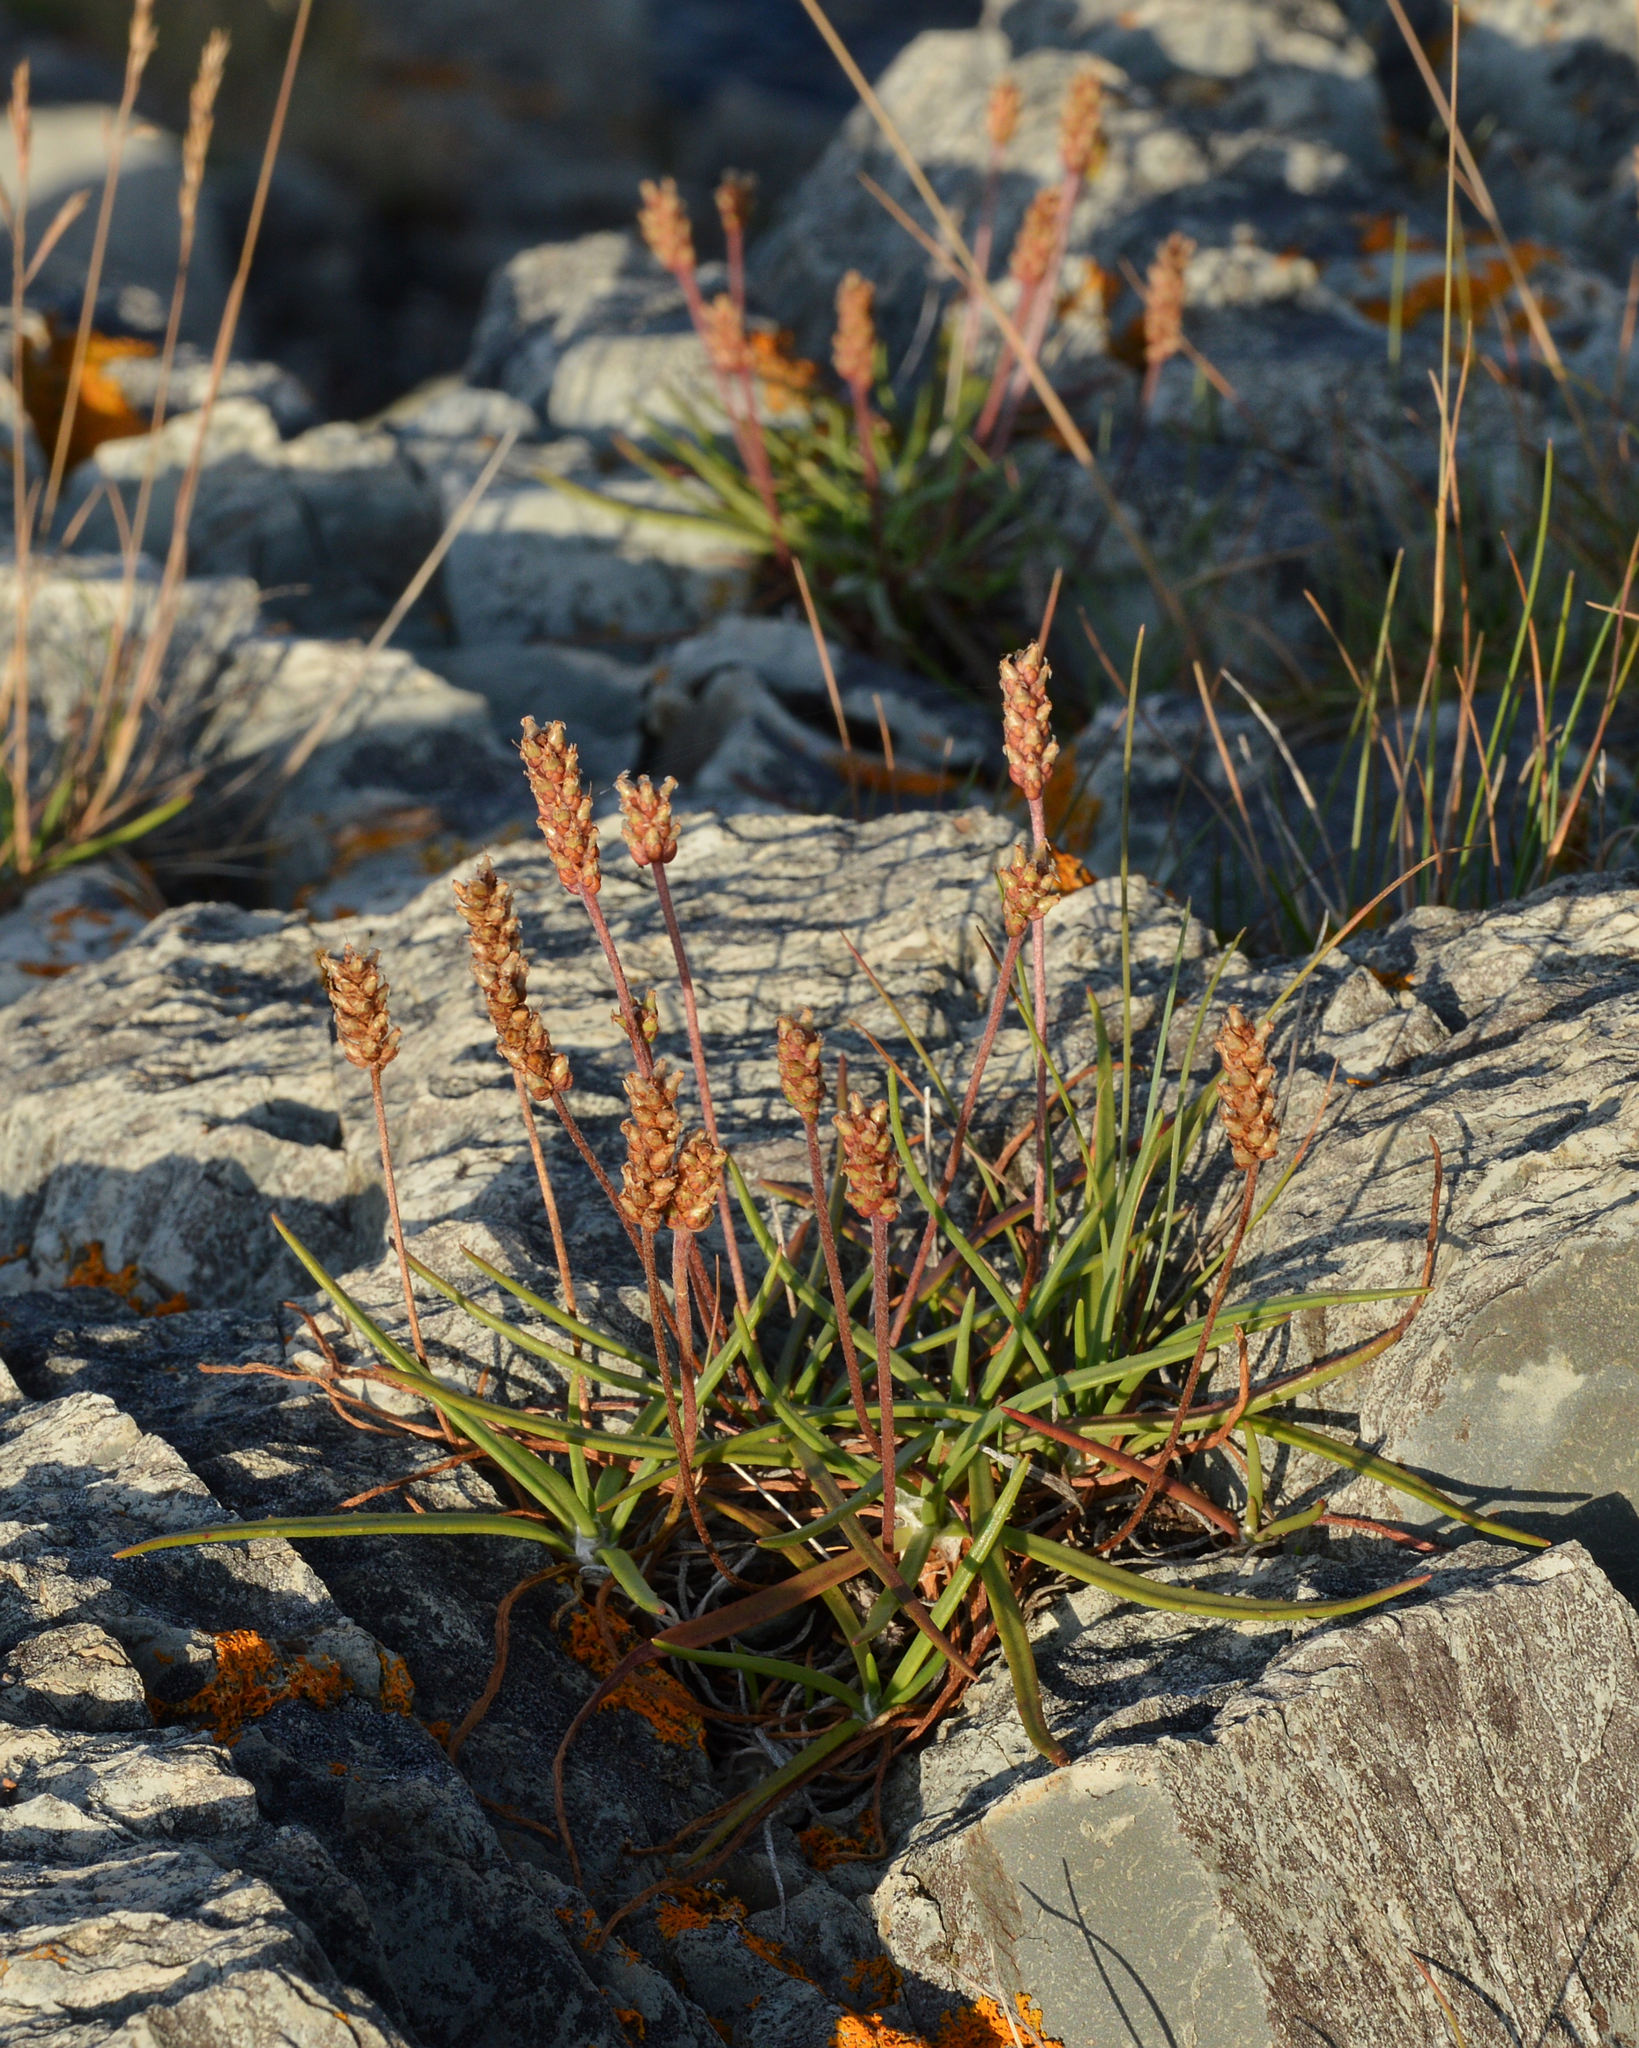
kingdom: Plantae
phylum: Tracheophyta
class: Magnoliopsida
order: Lamiales
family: Plantaginaceae
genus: Plantago
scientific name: Plantago maritima
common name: Sea plantain
